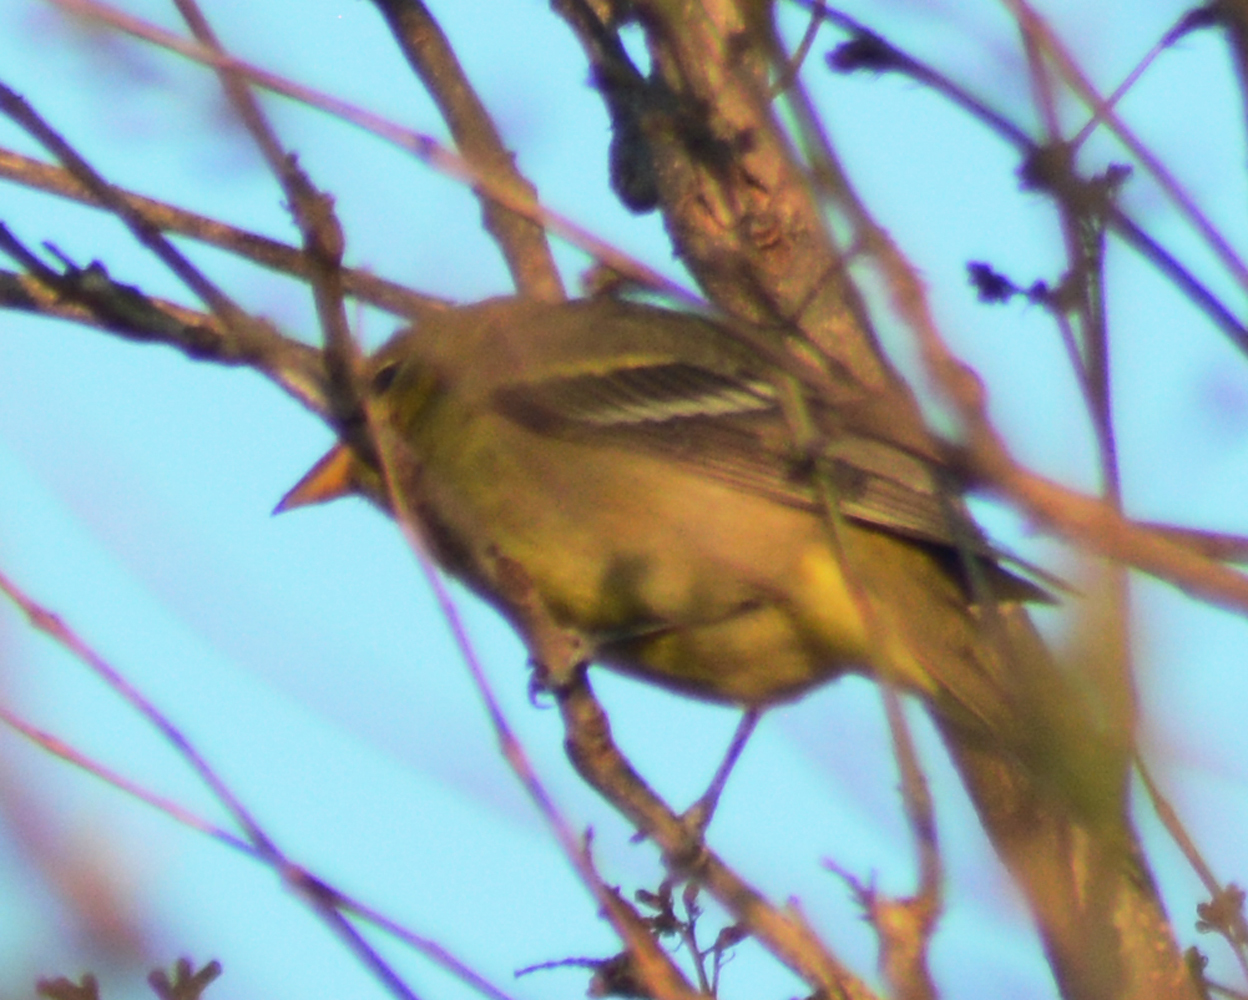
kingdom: Animalia
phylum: Chordata
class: Aves
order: Passeriformes
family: Cardinalidae
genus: Piranga
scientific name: Piranga ludoviciana
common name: Western tanager
